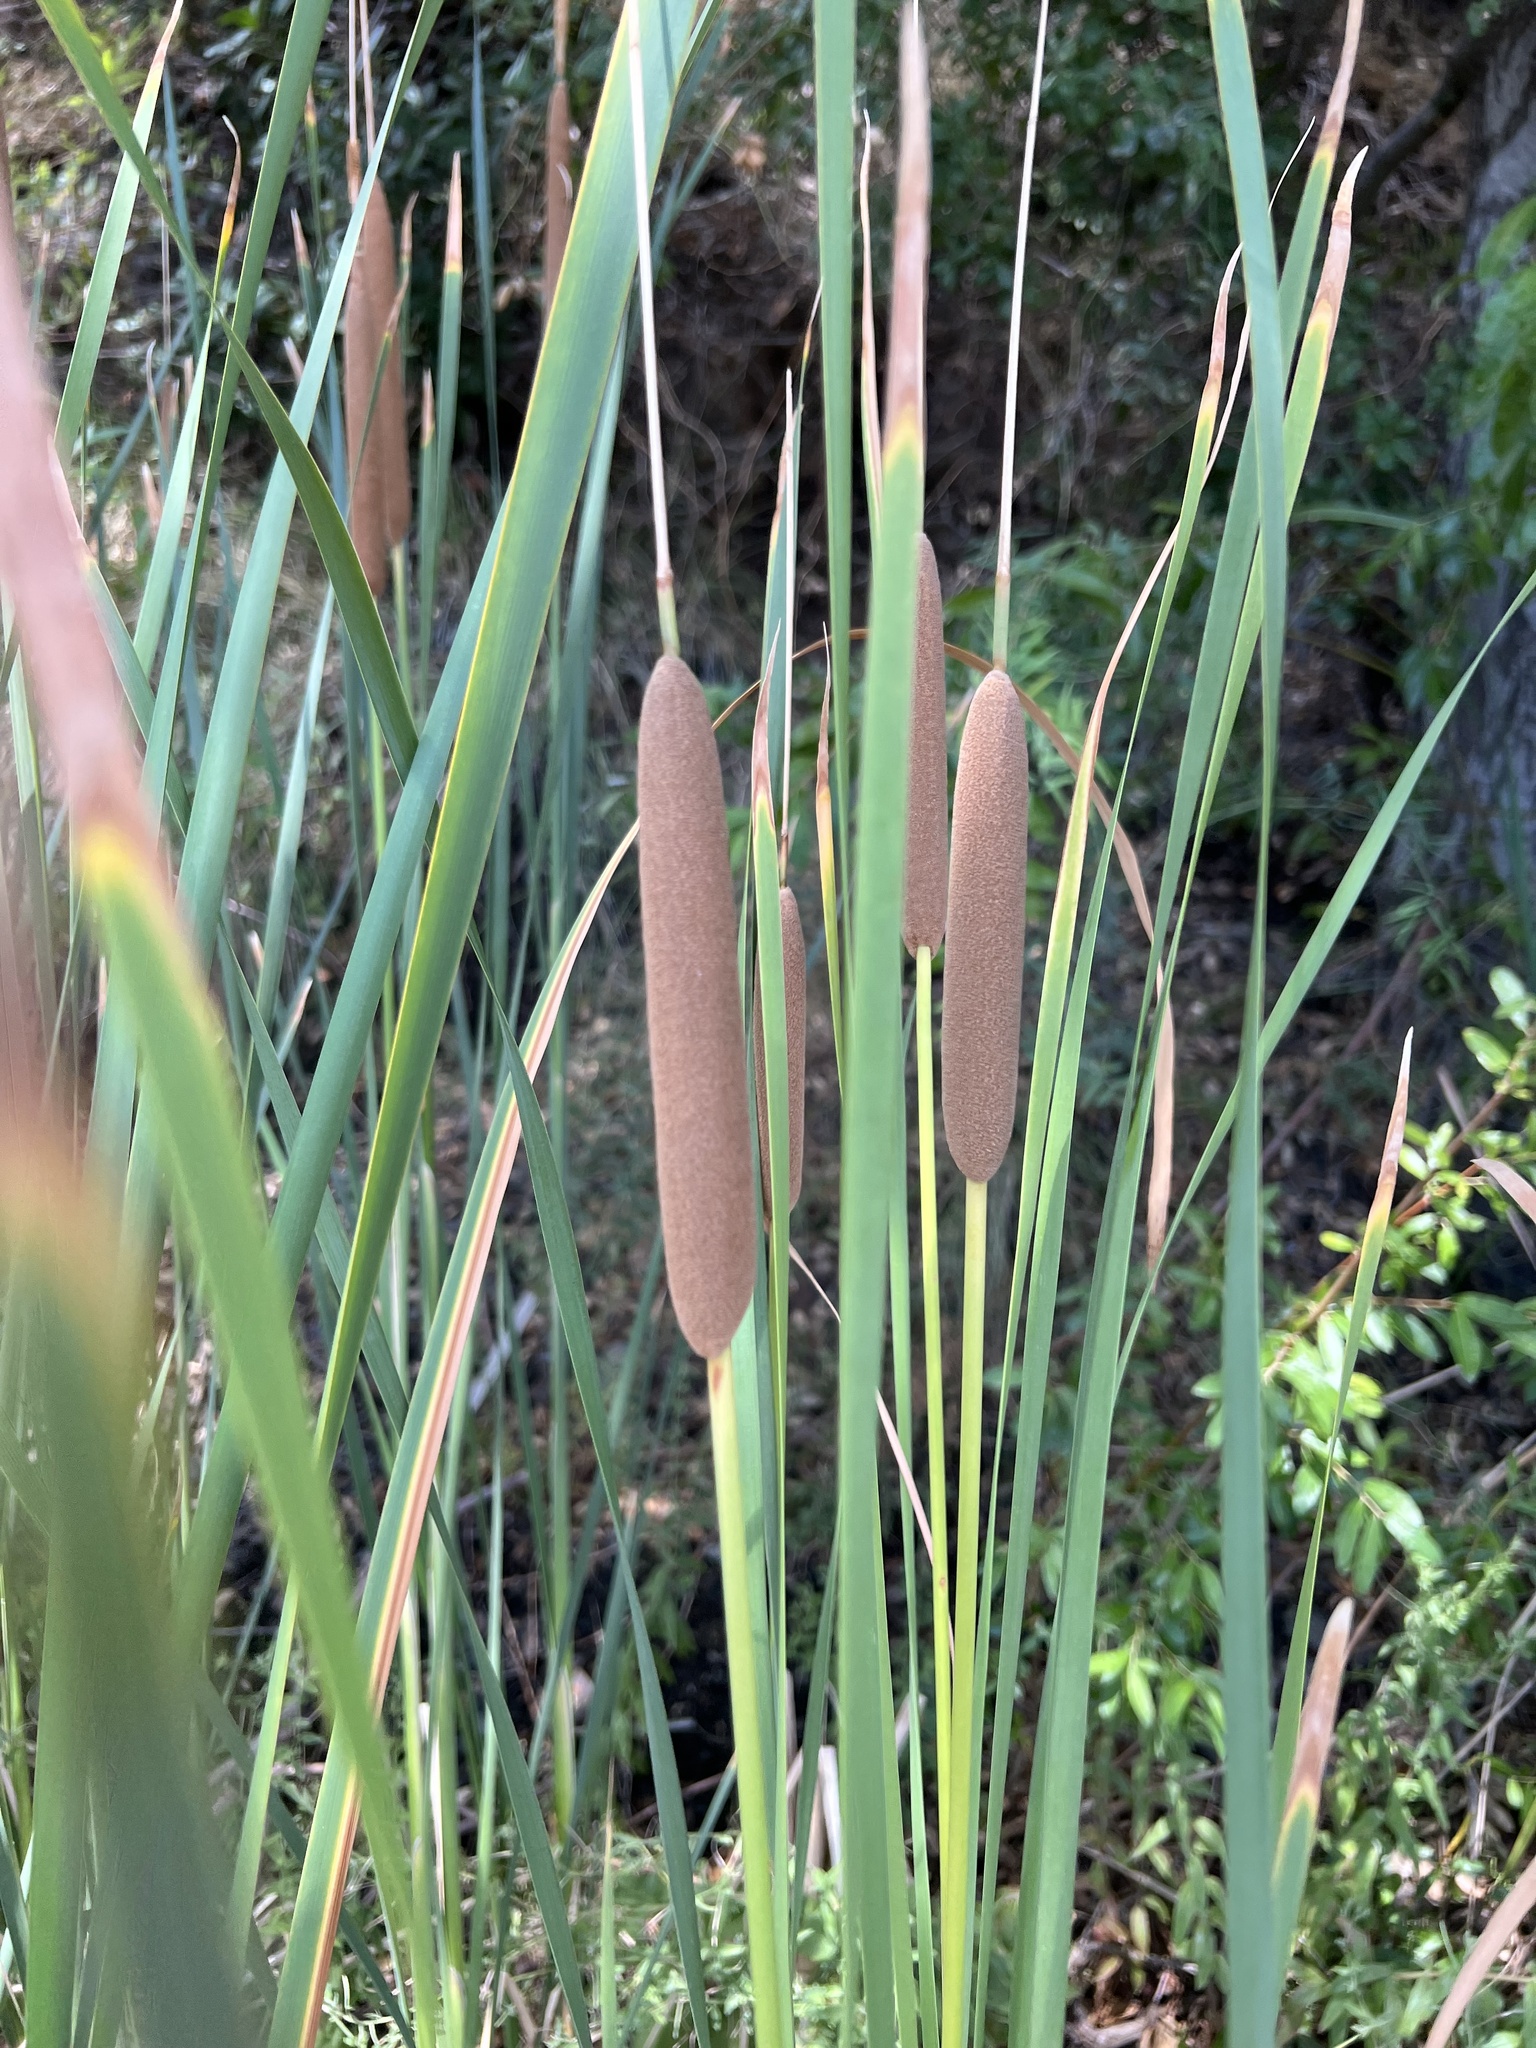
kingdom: Plantae
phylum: Tracheophyta
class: Liliopsida
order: Poales
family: Typhaceae
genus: Typha
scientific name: Typha domingensis
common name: Southern cattail
